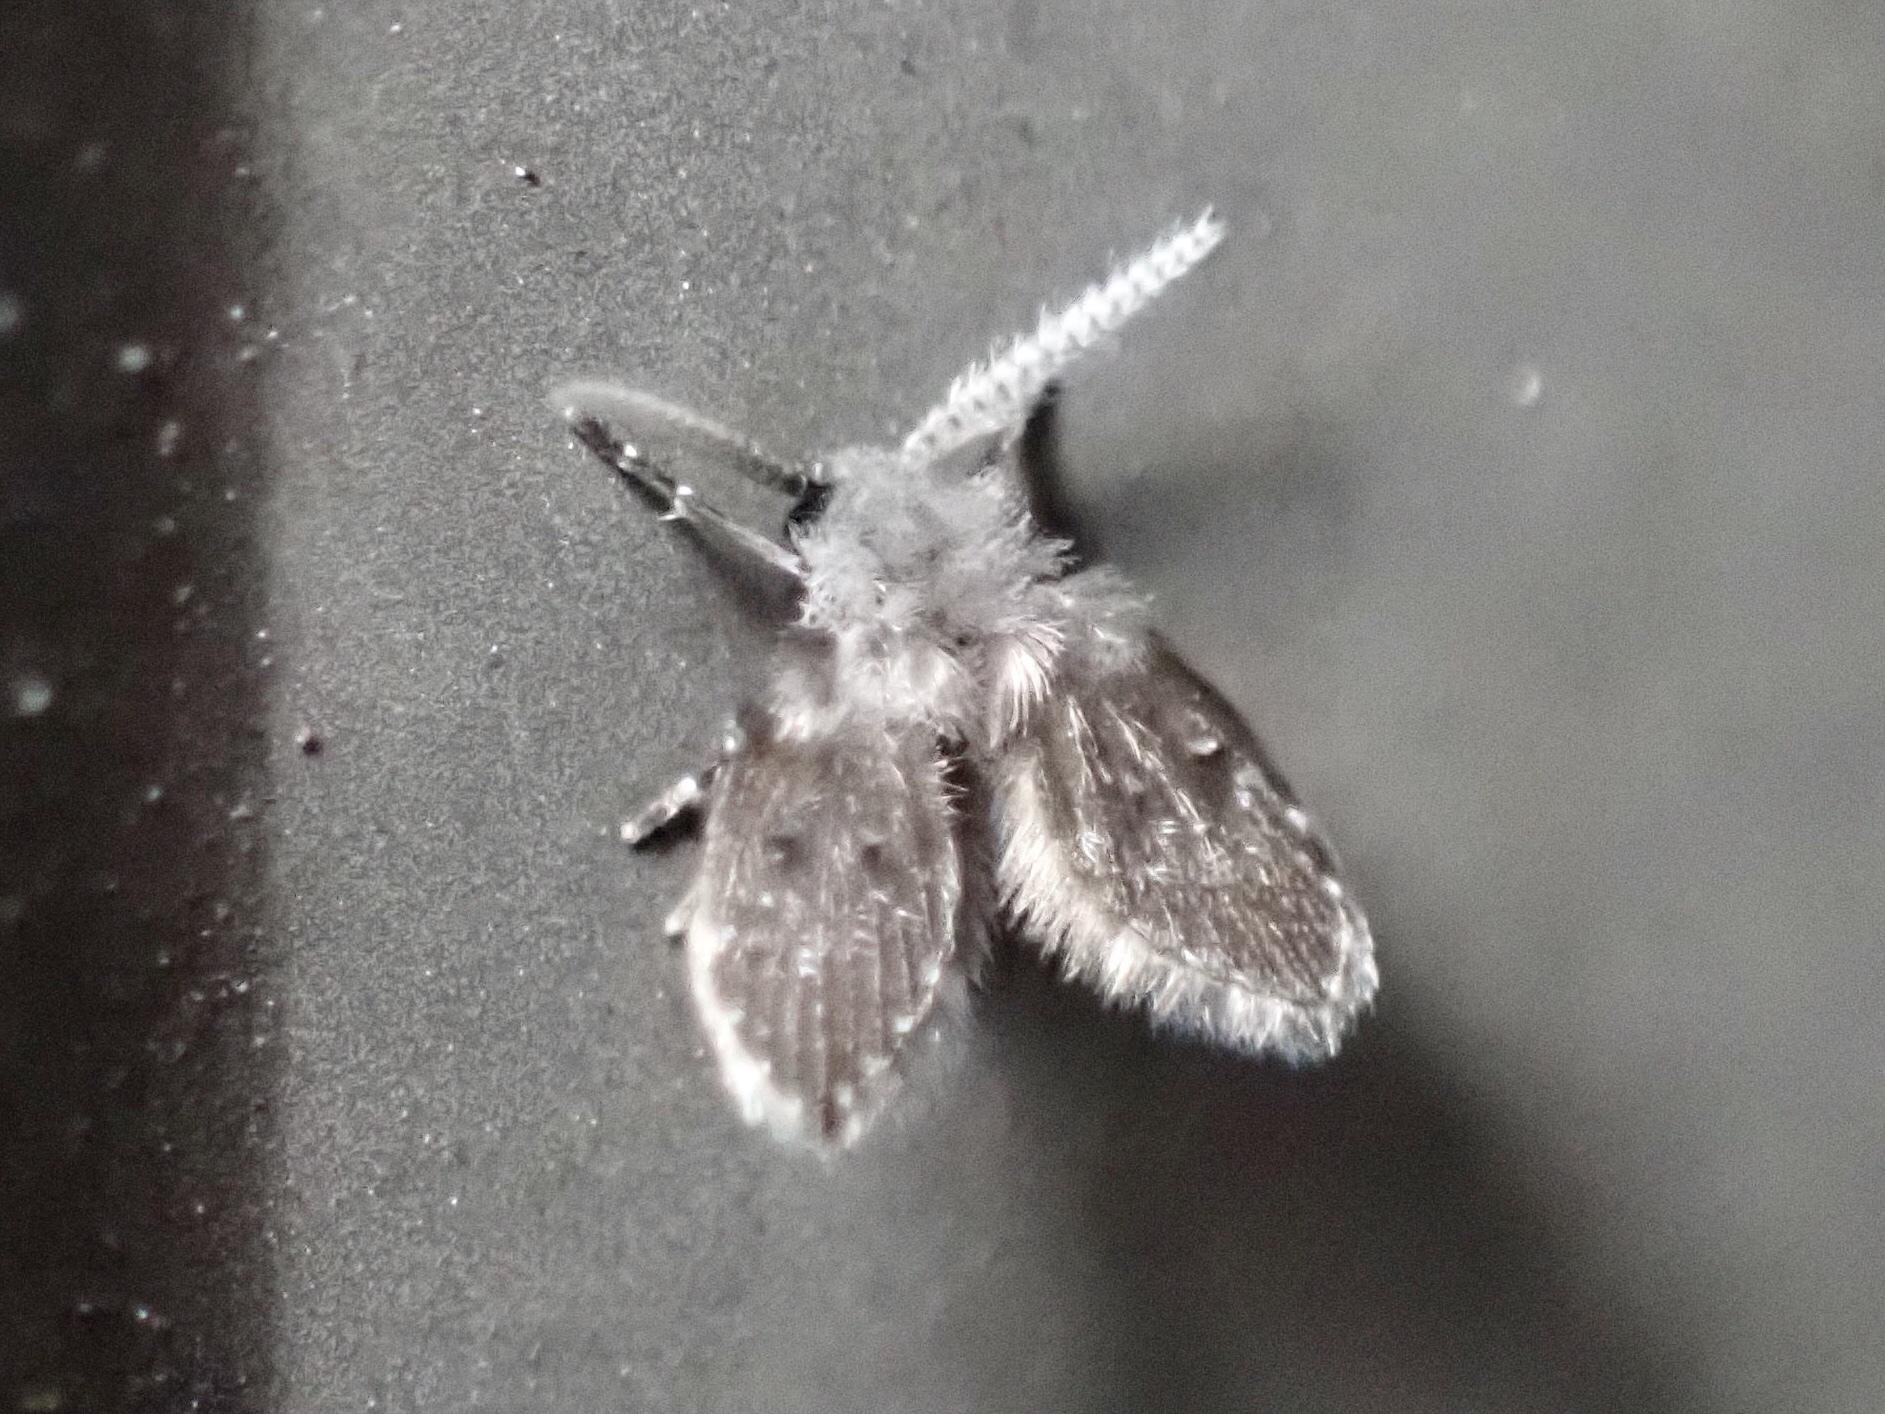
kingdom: Animalia
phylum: Arthropoda
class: Insecta
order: Diptera
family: Psychodidae
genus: Clogmia
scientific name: Clogmia albipunctatus
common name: White-spotted moth fly
